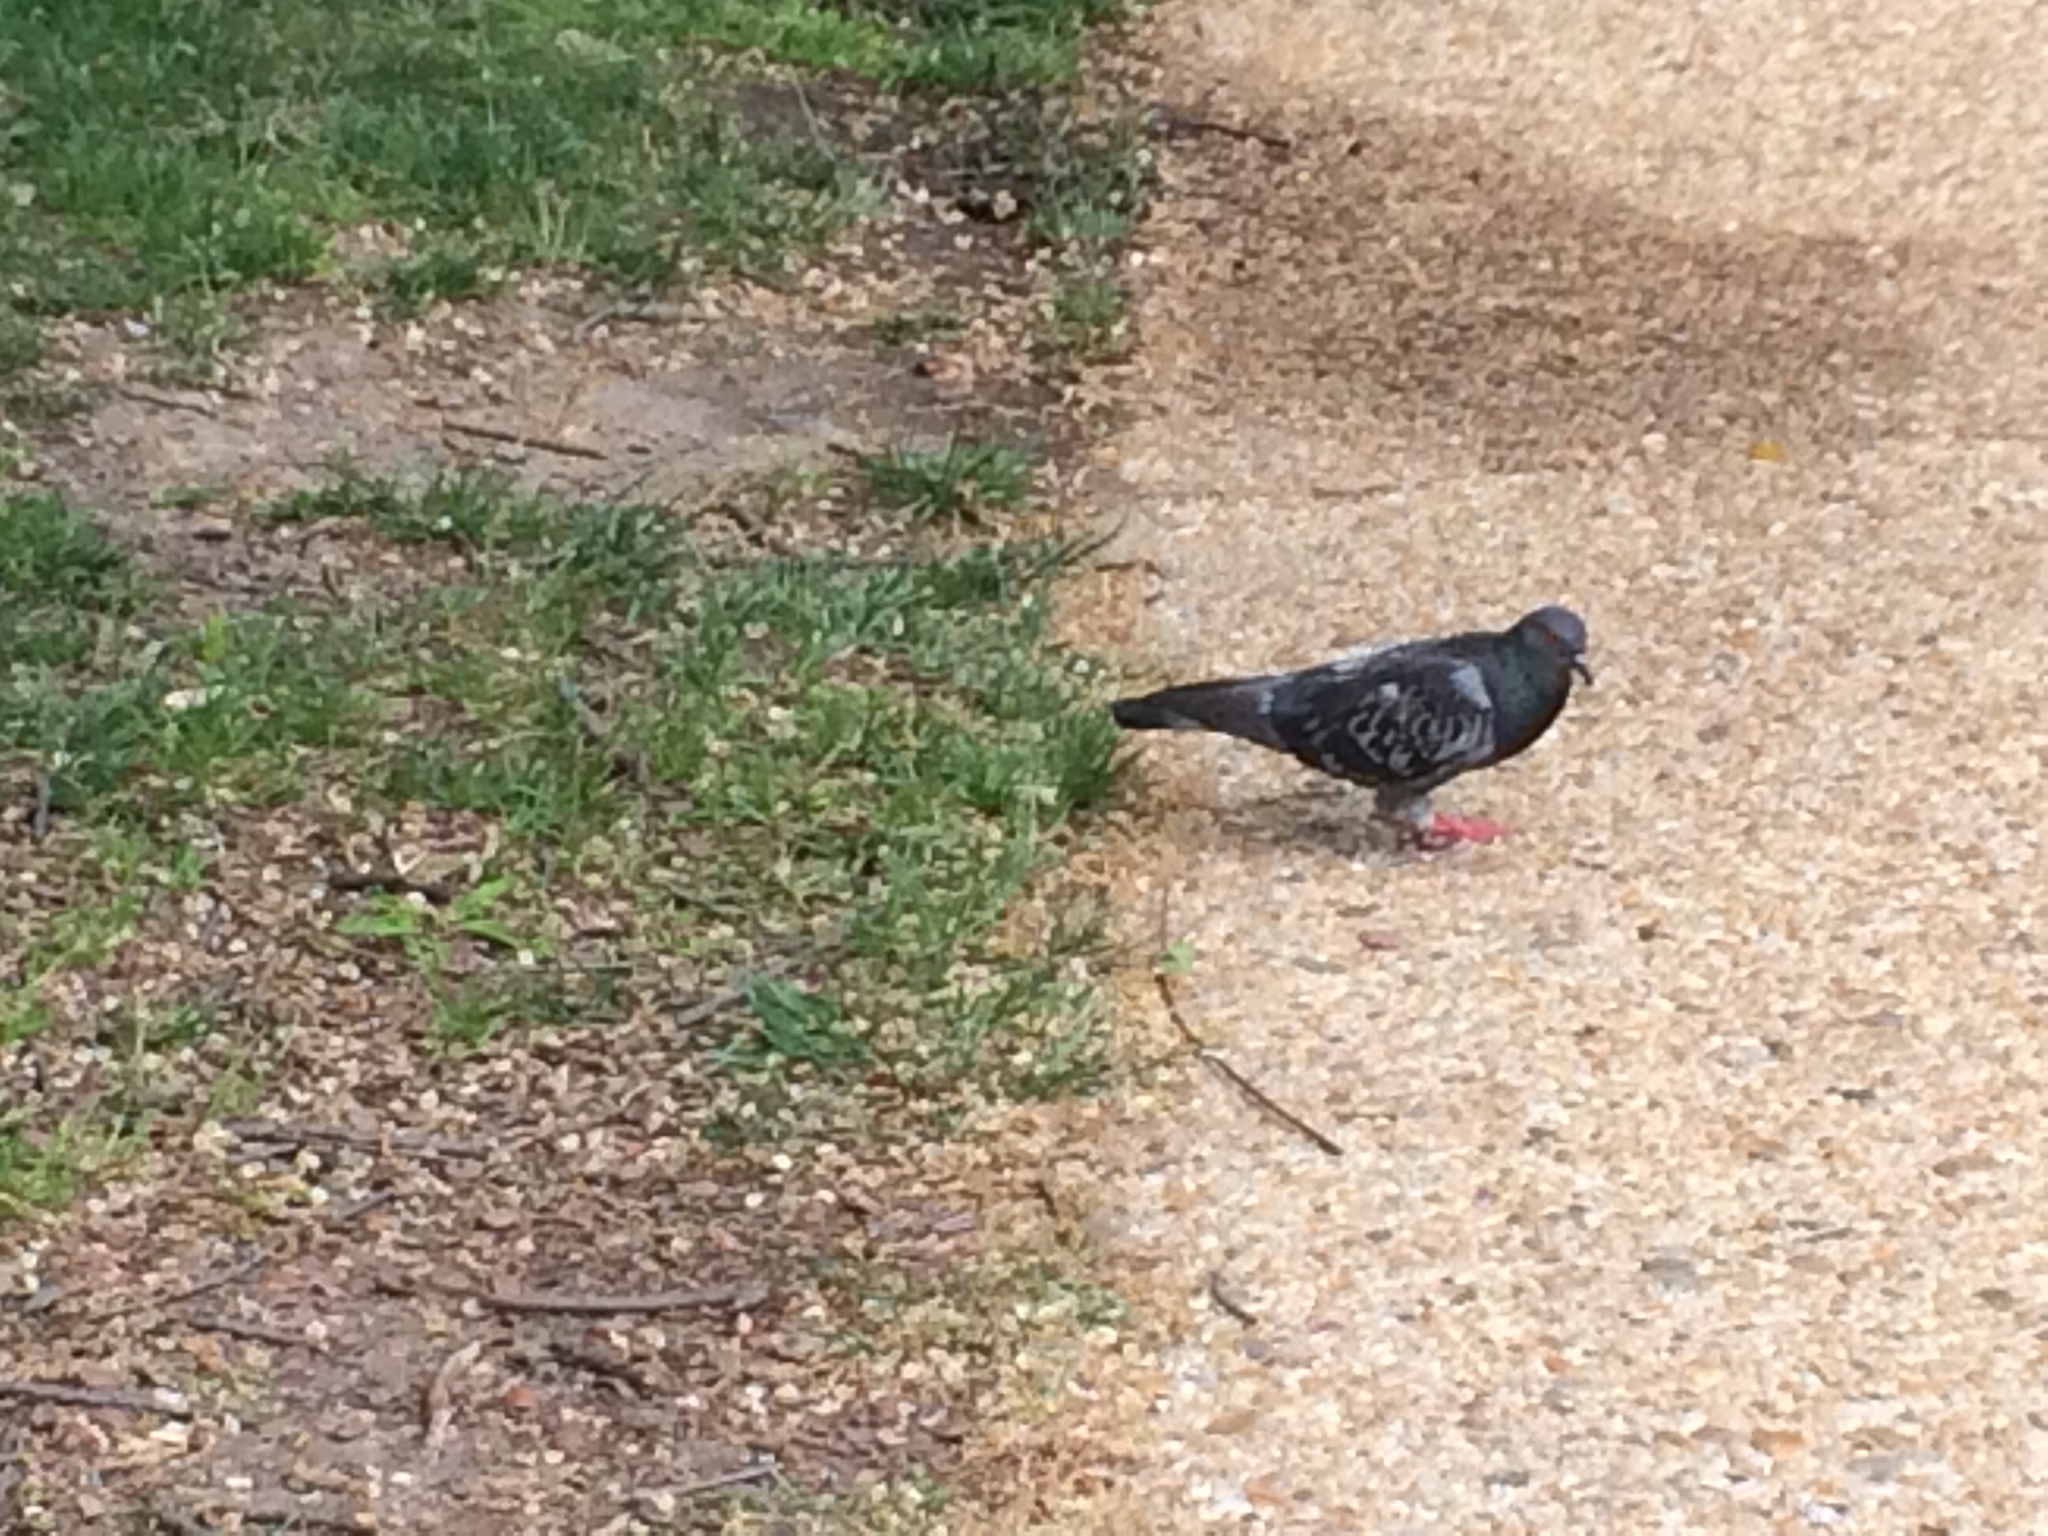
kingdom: Animalia
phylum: Chordata
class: Aves
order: Columbiformes
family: Columbidae
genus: Columba
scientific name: Columba livia
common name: Rock pigeon
